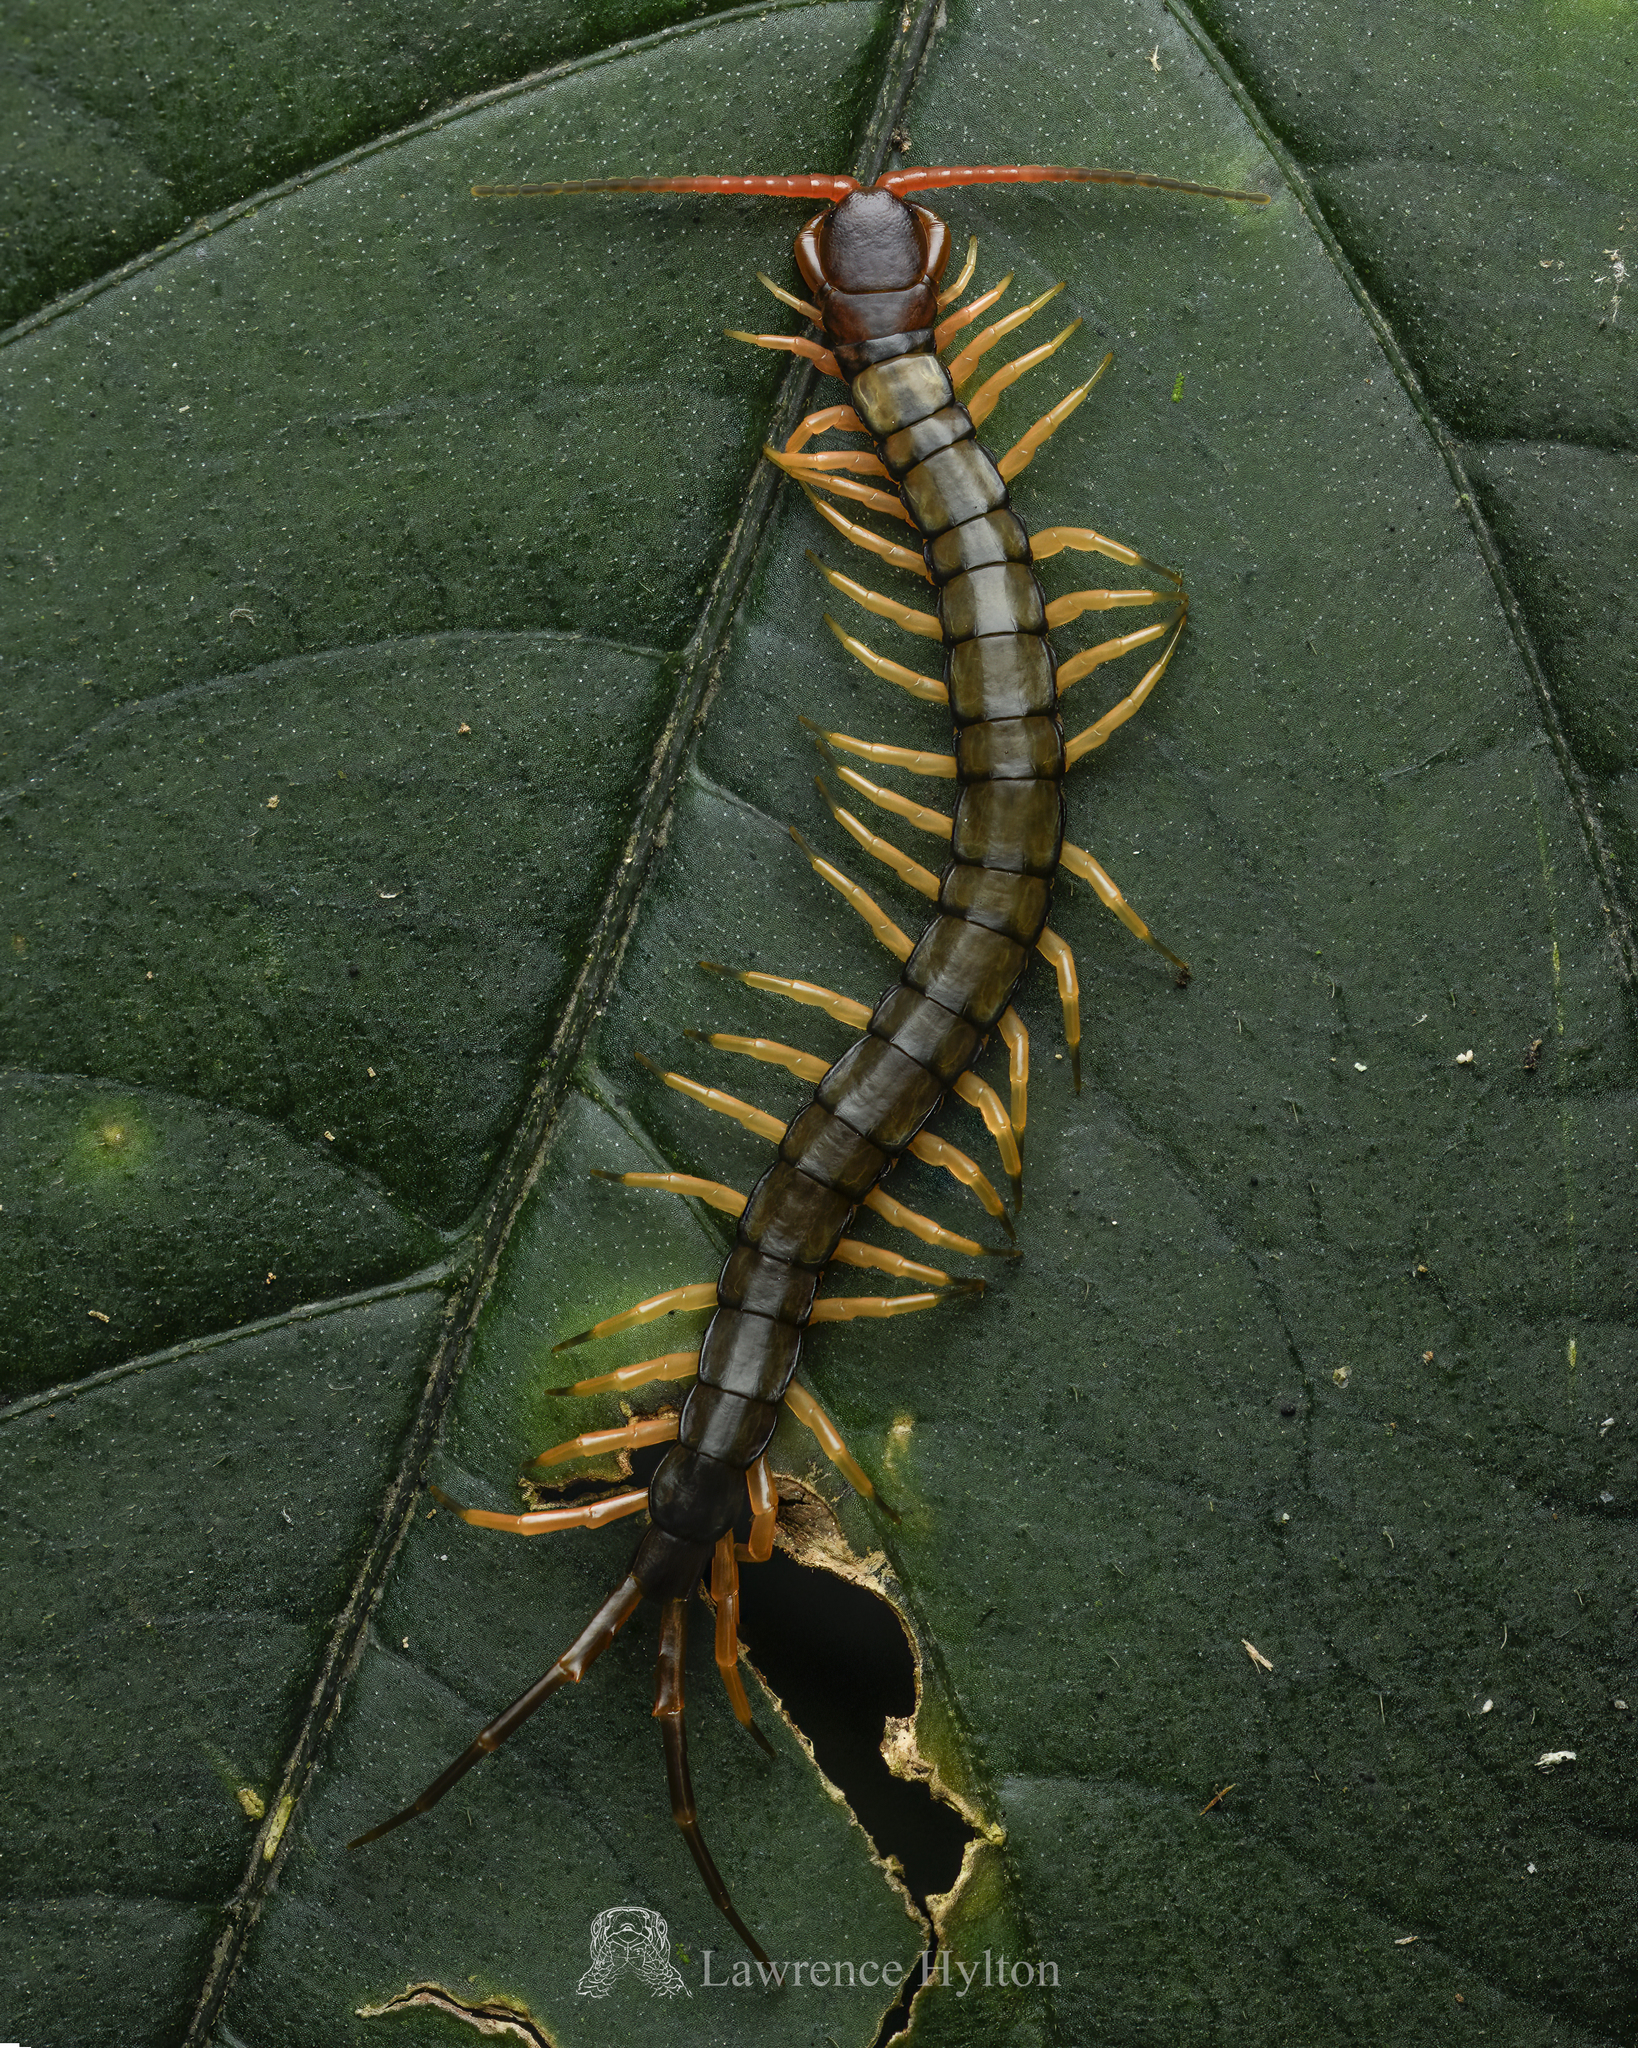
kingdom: Animalia
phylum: Arthropoda
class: Chilopoda
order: Scolopendromorpha
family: Scolopendridae
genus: Scolopendra
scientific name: Scolopendra hainana
